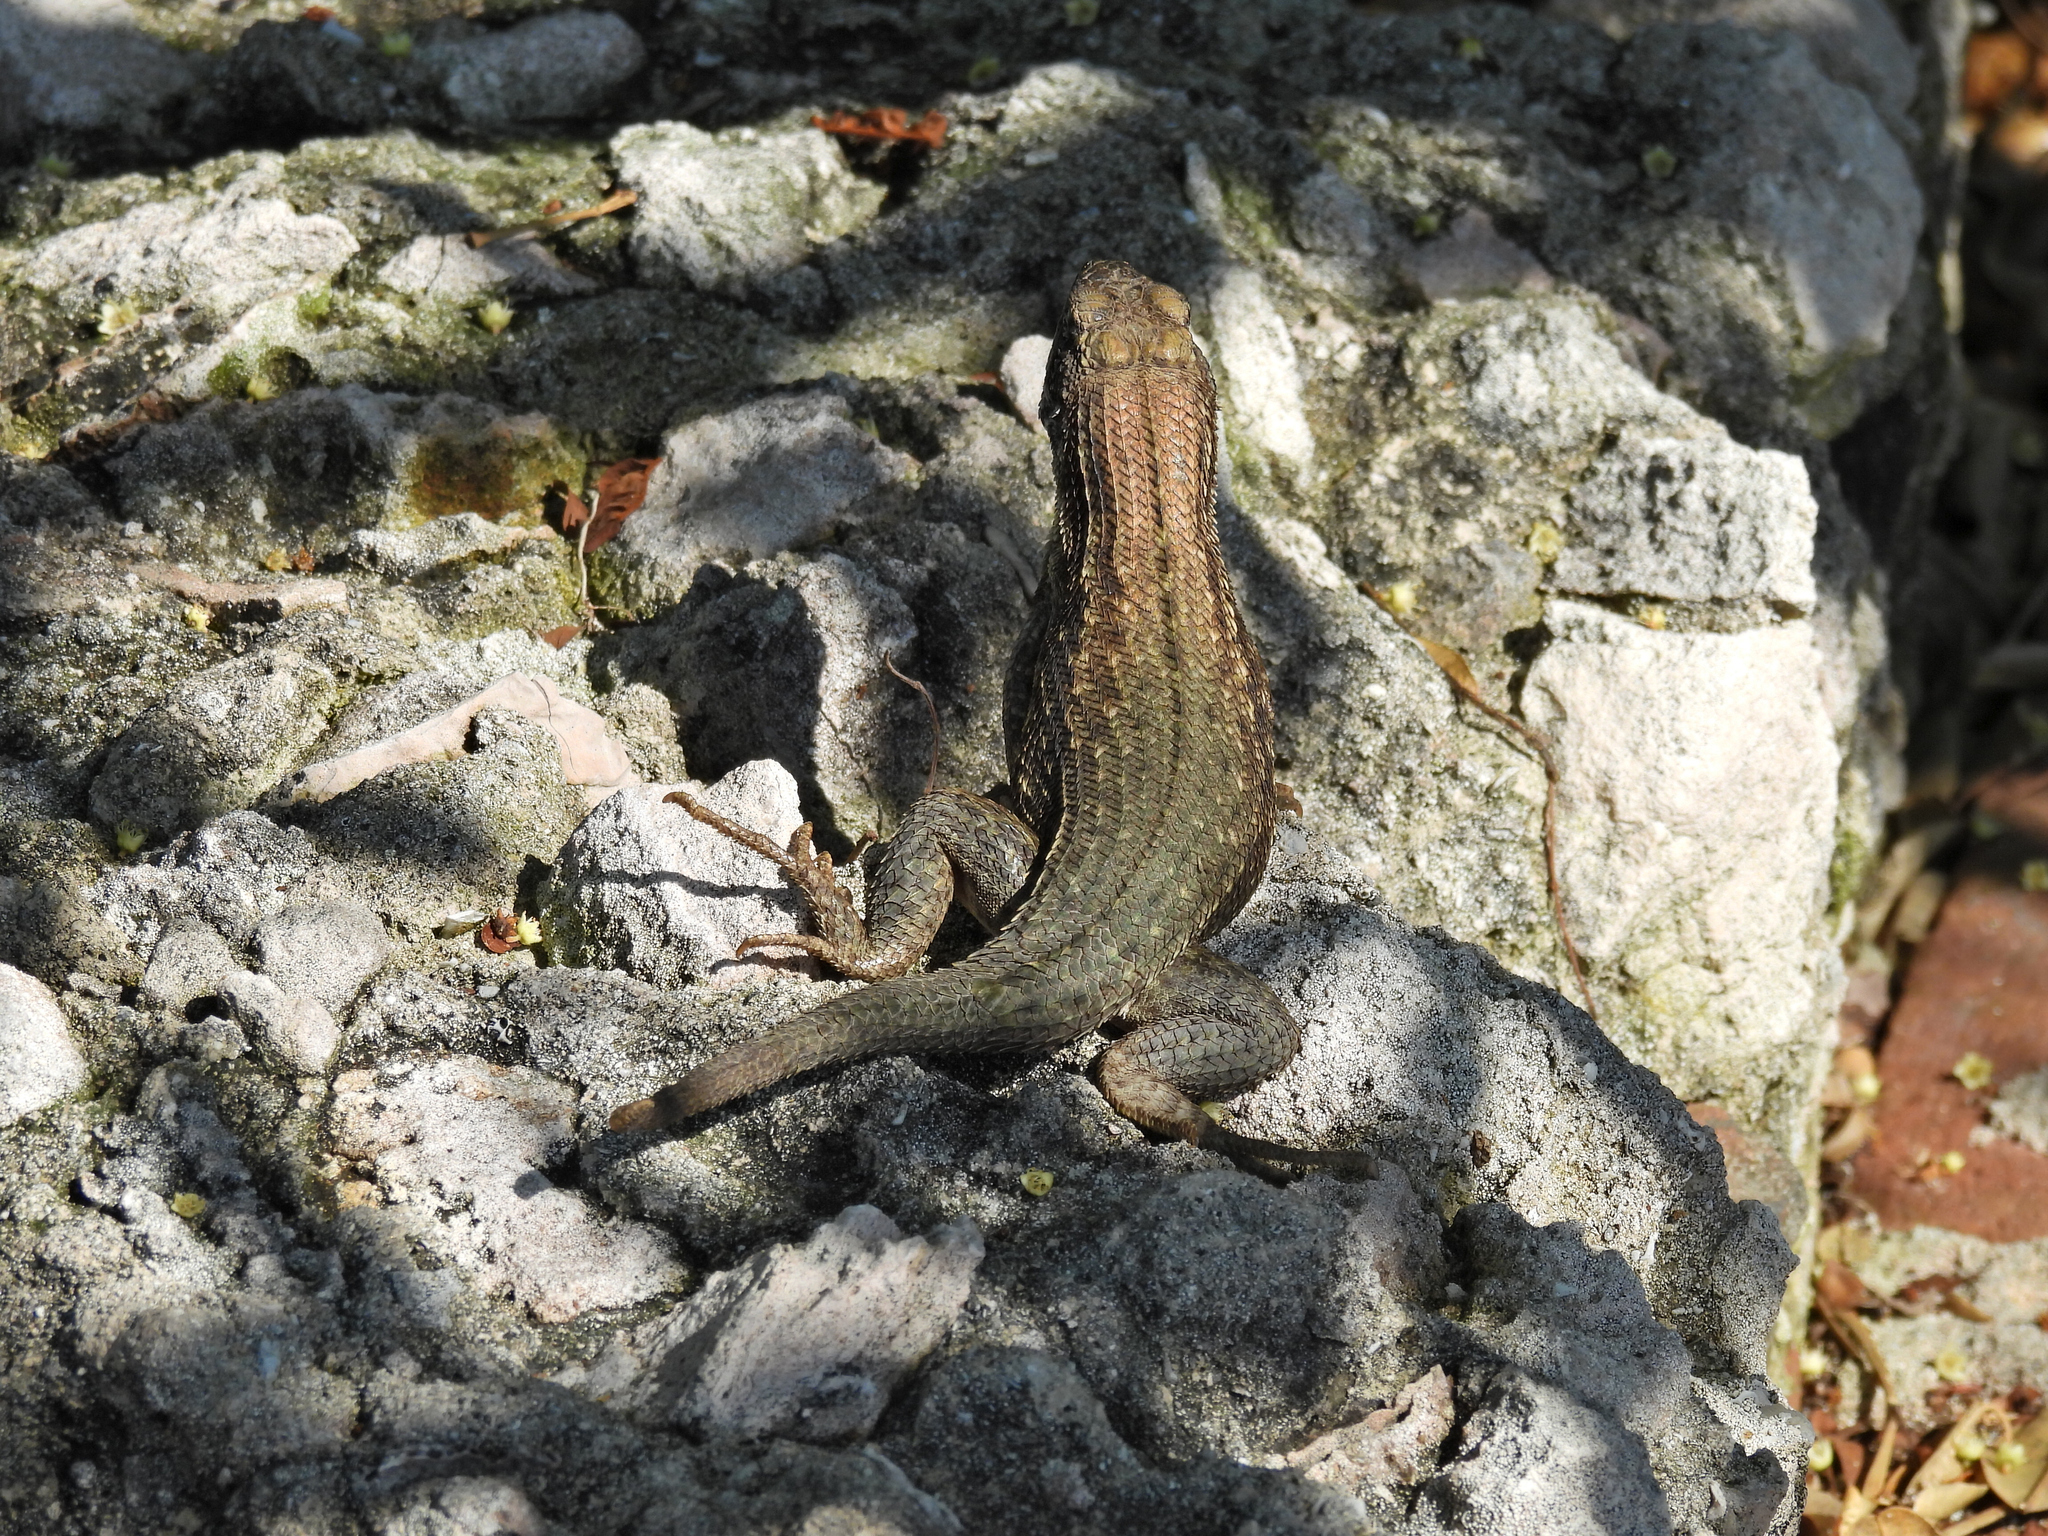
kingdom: Animalia
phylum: Chordata
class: Squamata
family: Leiocephalidae
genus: Leiocephalus
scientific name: Leiocephalus carinatus
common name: Northern curly-tailed lizard
